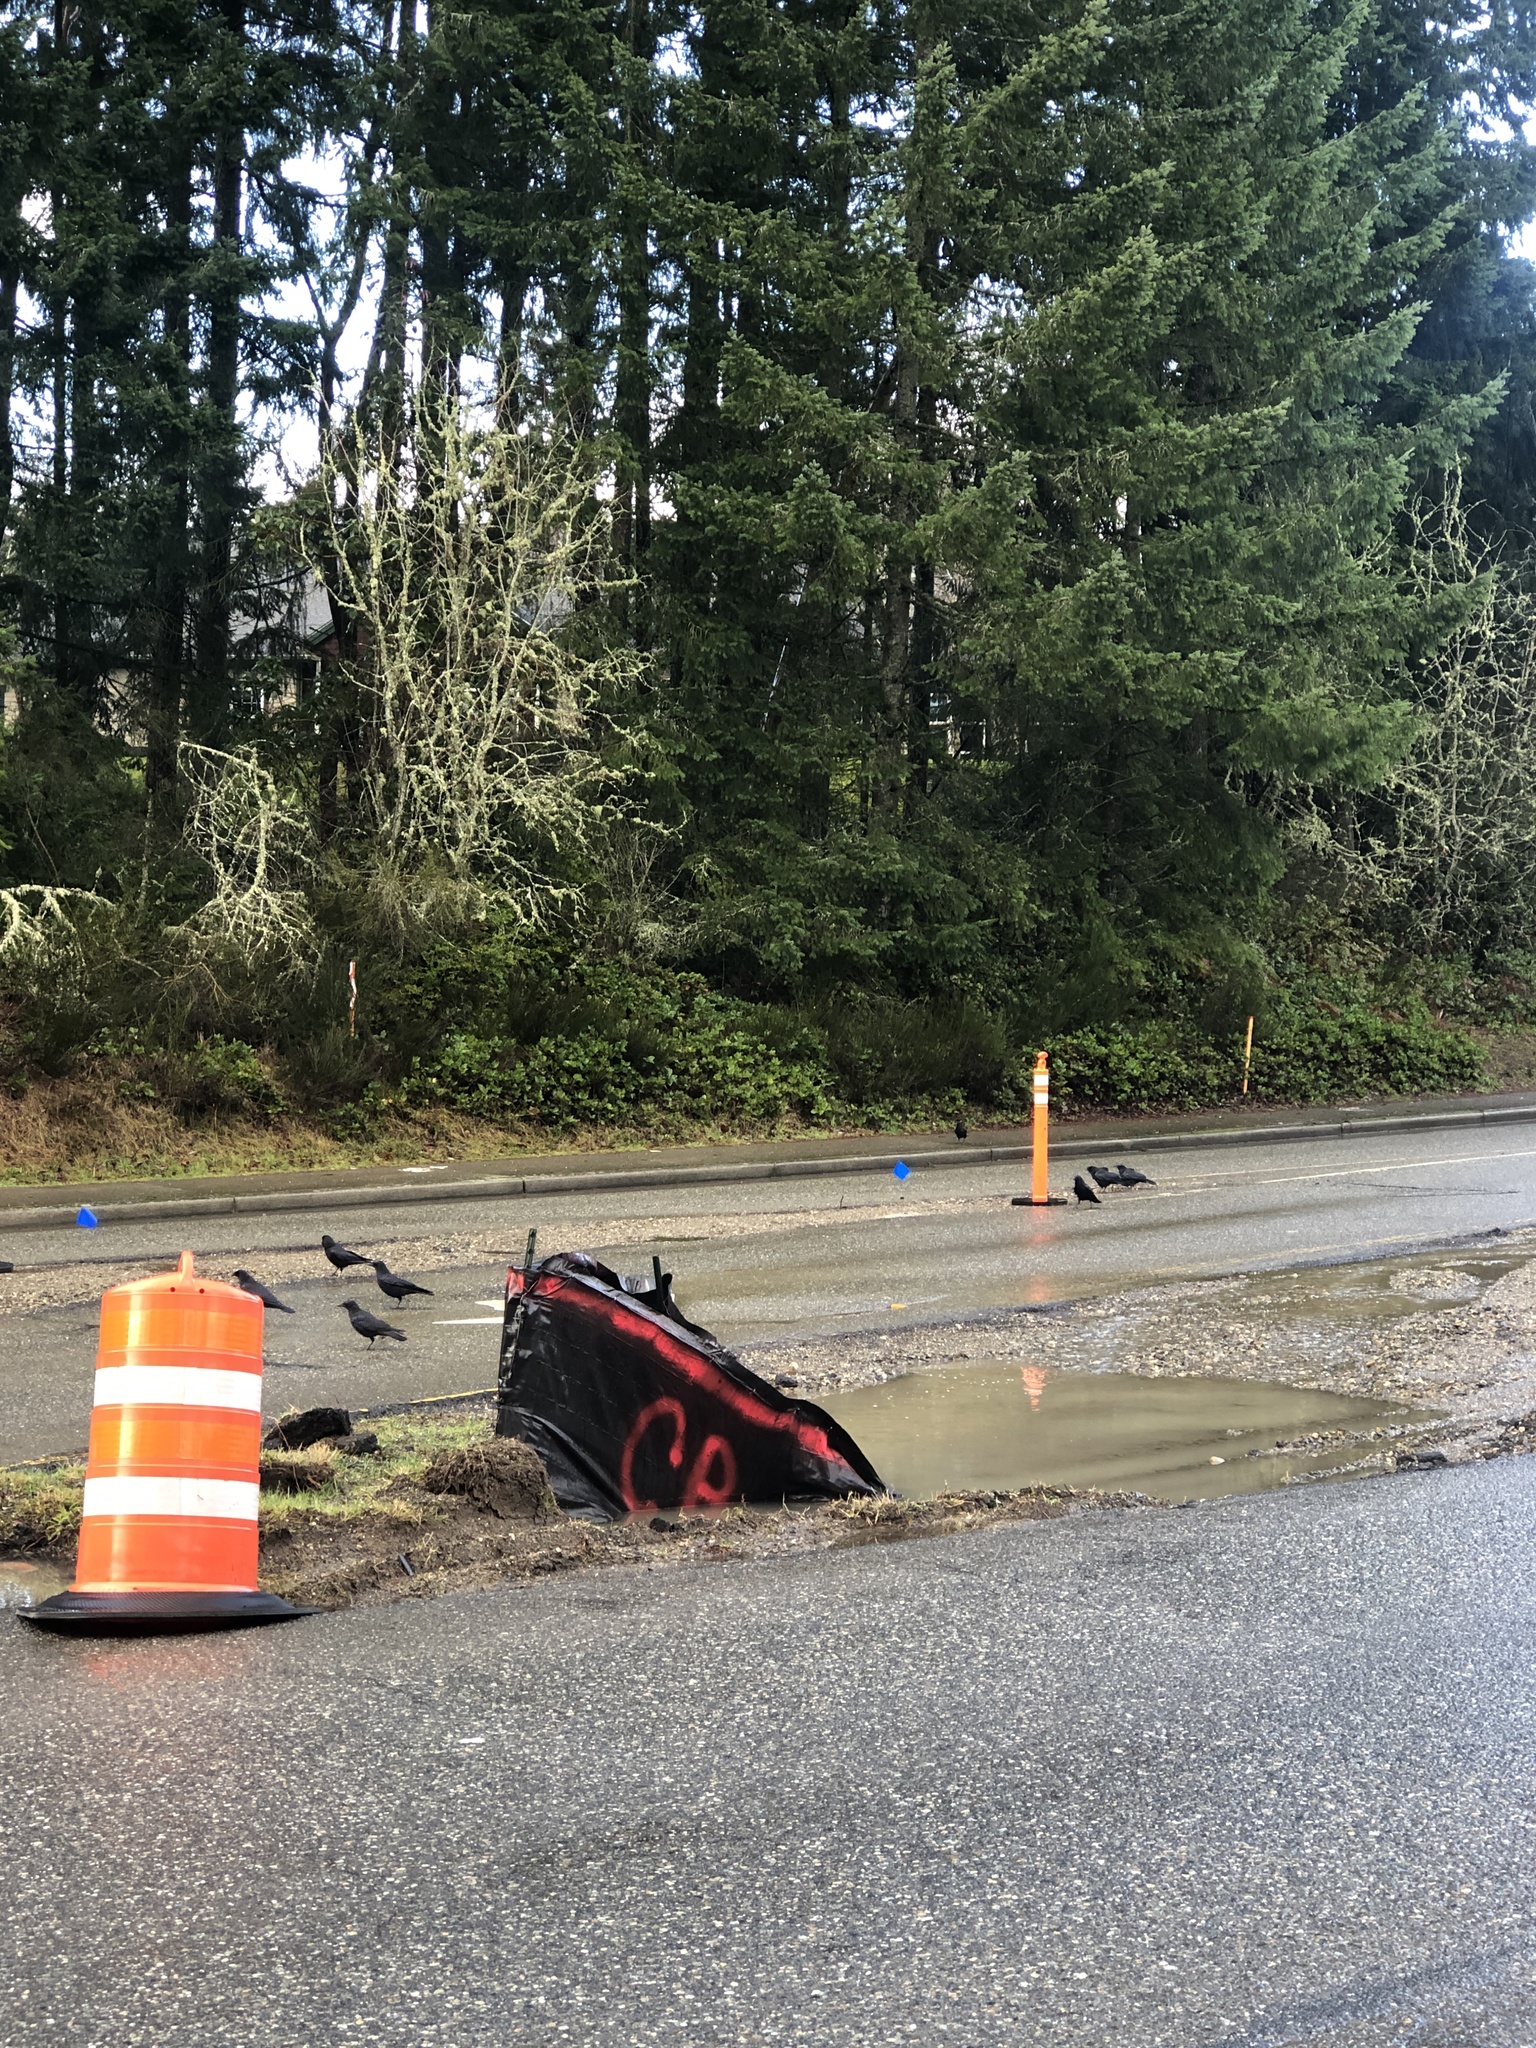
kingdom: Animalia
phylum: Chordata
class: Aves
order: Passeriformes
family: Corvidae
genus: Corvus
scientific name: Corvus brachyrhynchos
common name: American crow
